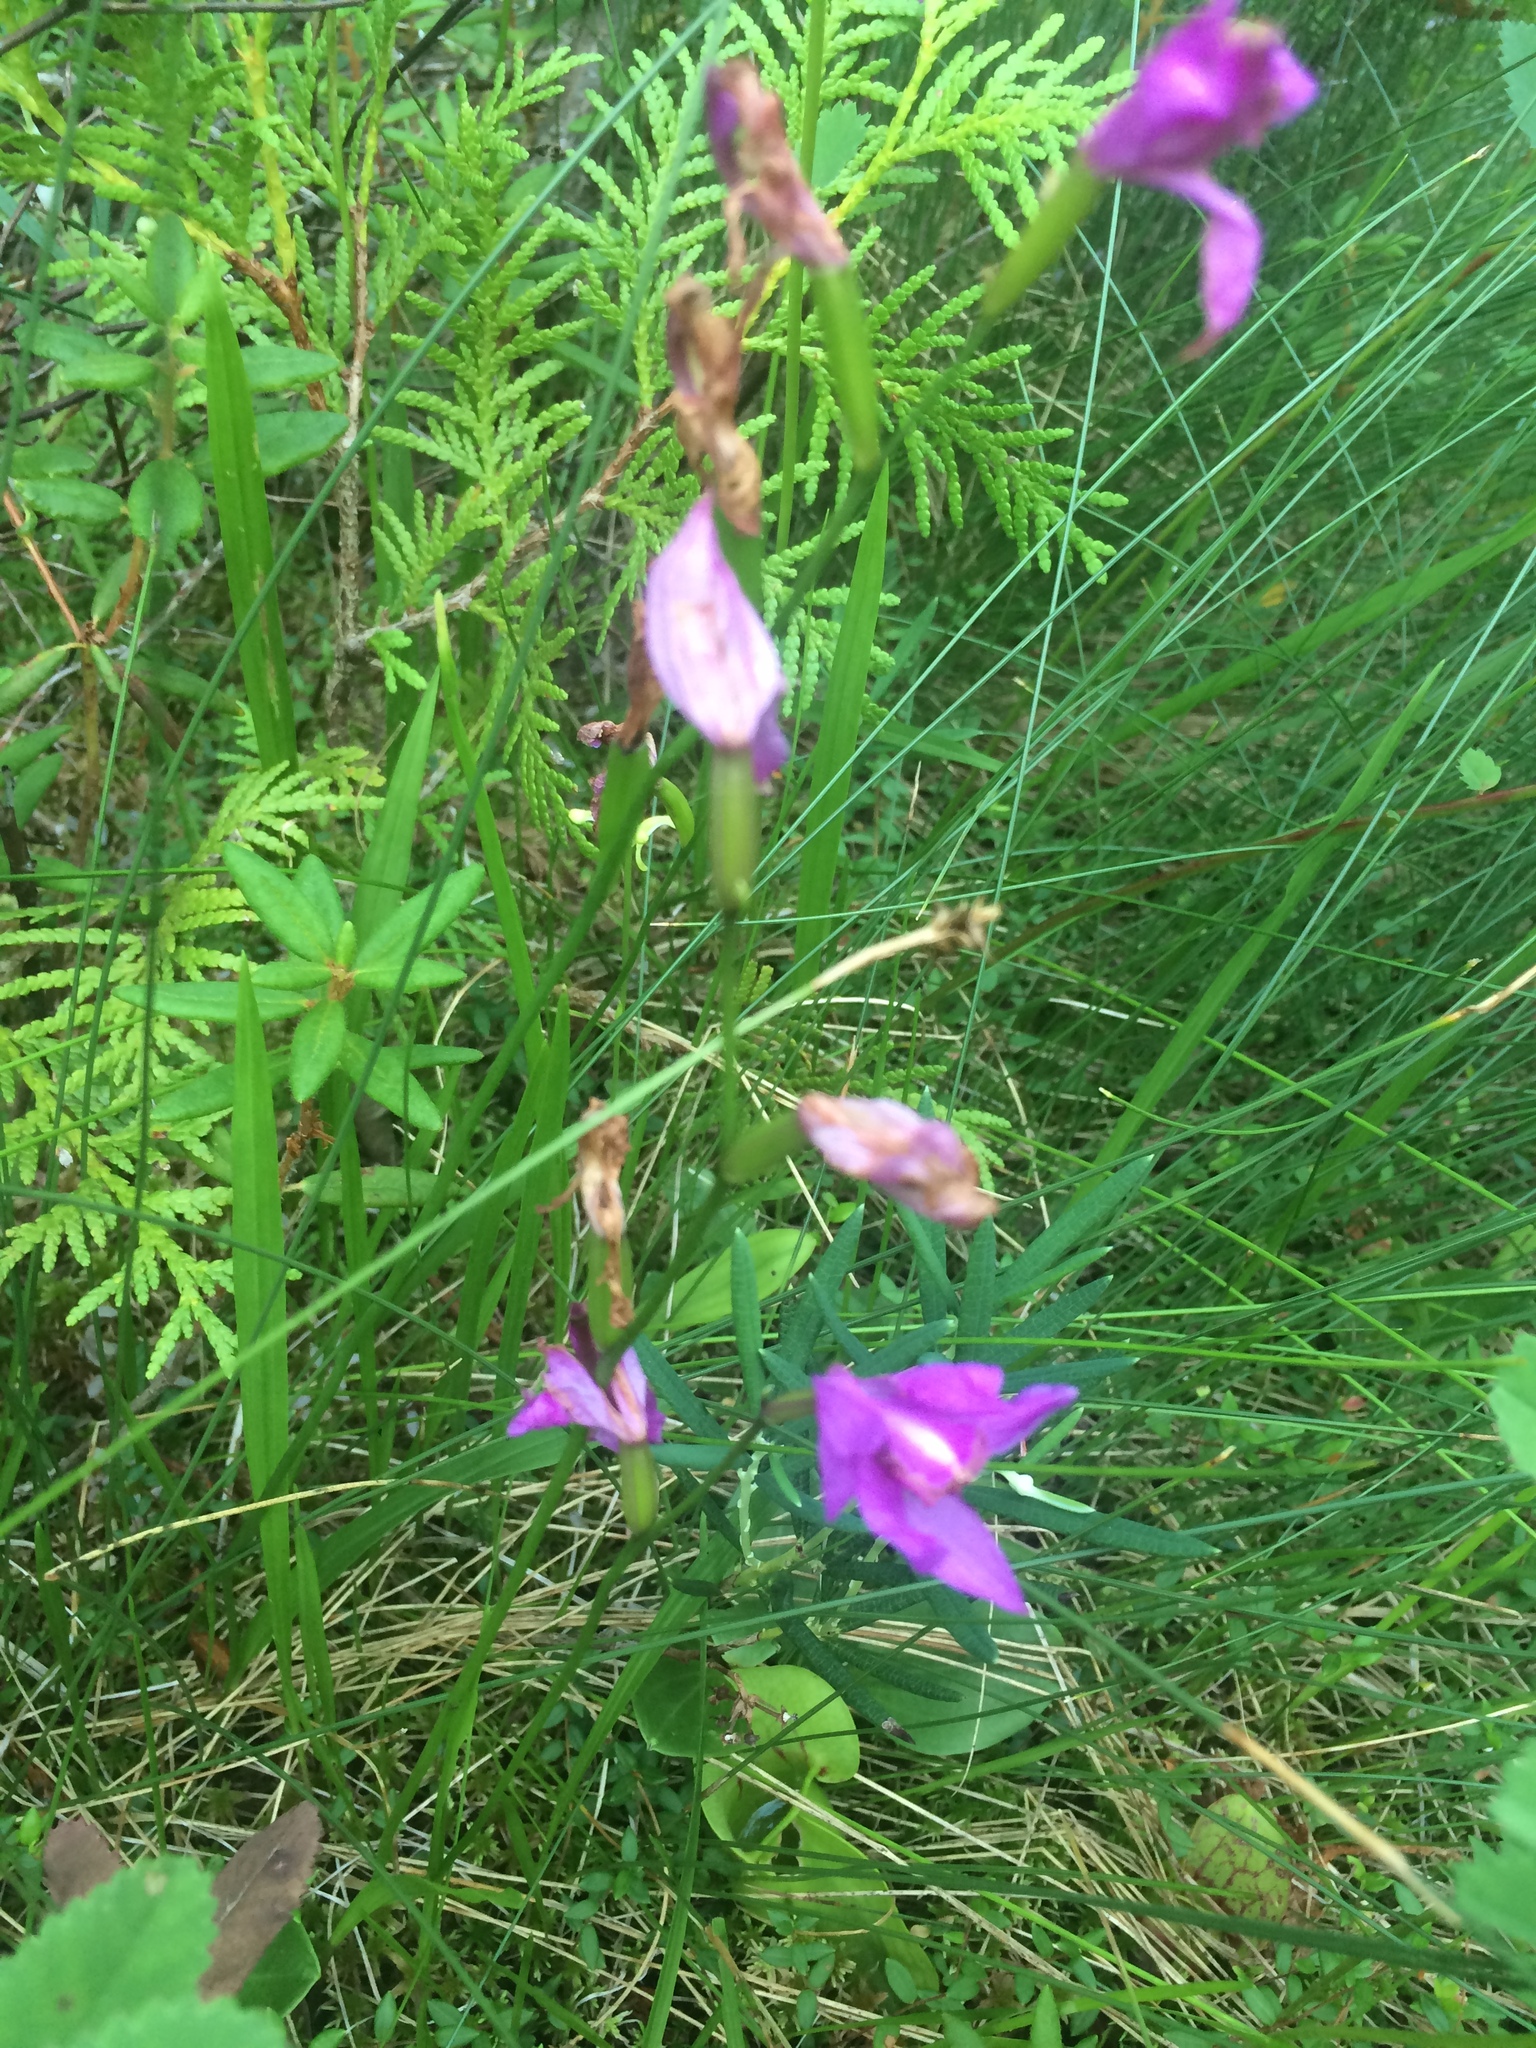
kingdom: Plantae
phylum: Tracheophyta
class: Liliopsida
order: Asparagales
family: Orchidaceae
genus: Calopogon
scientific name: Calopogon tuberosus
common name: Grass-pink
